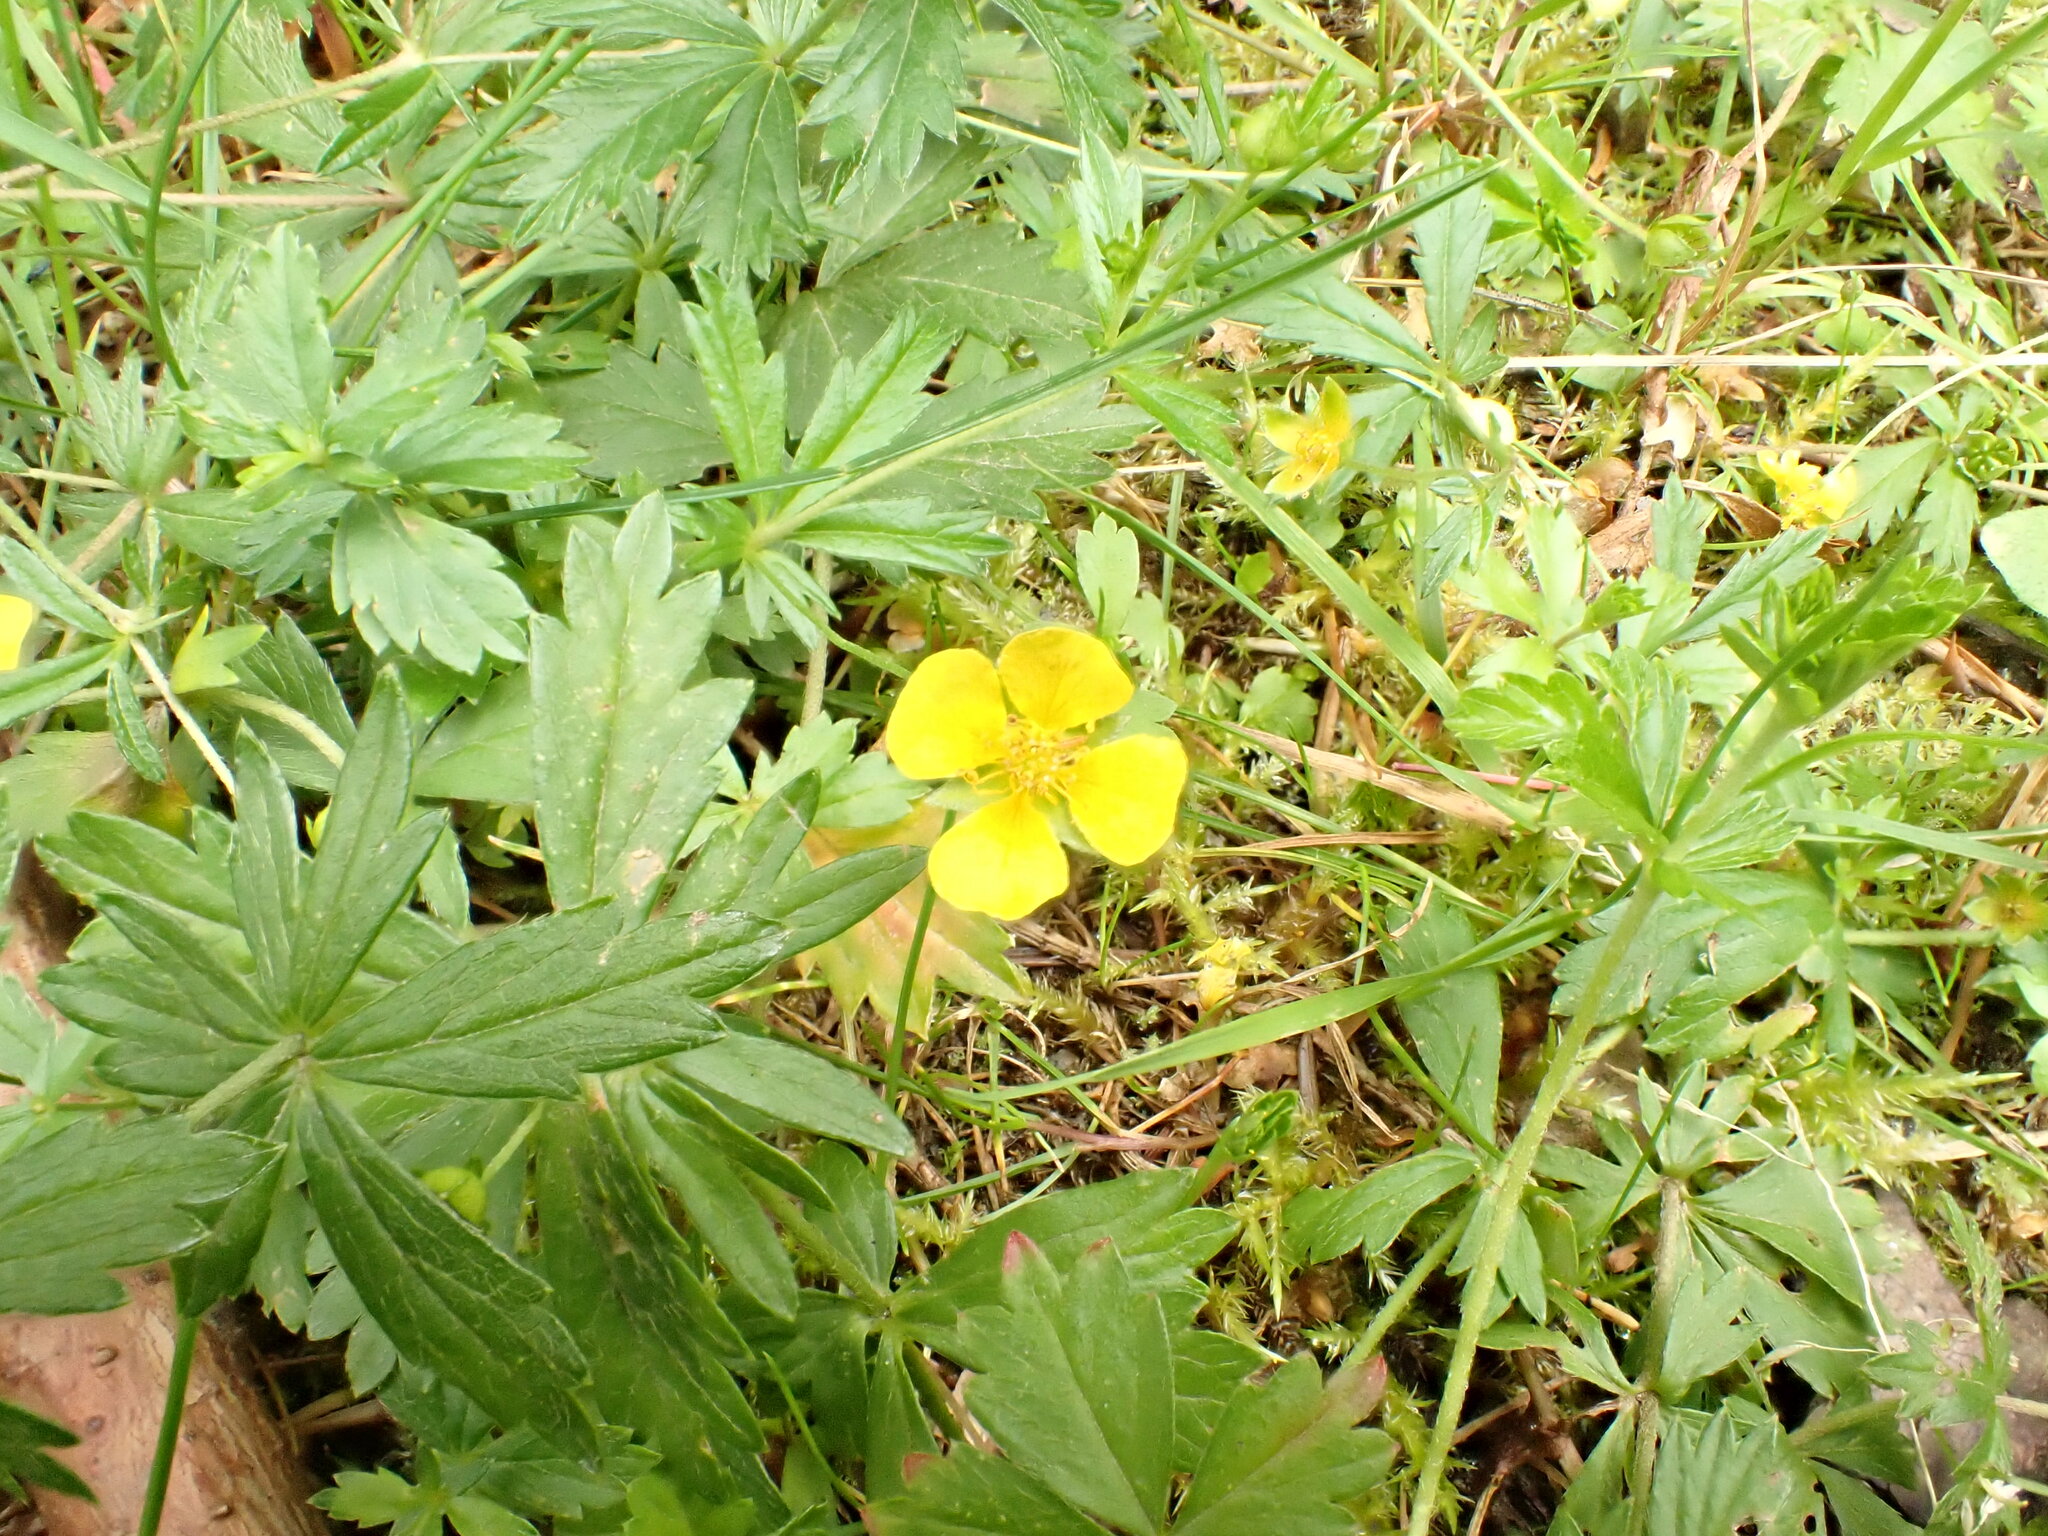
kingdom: Plantae
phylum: Tracheophyta
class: Magnoliopsida
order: Rosales
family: Rosaceae
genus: Potentilla
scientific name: Potentilla erecta
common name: Tormentil
